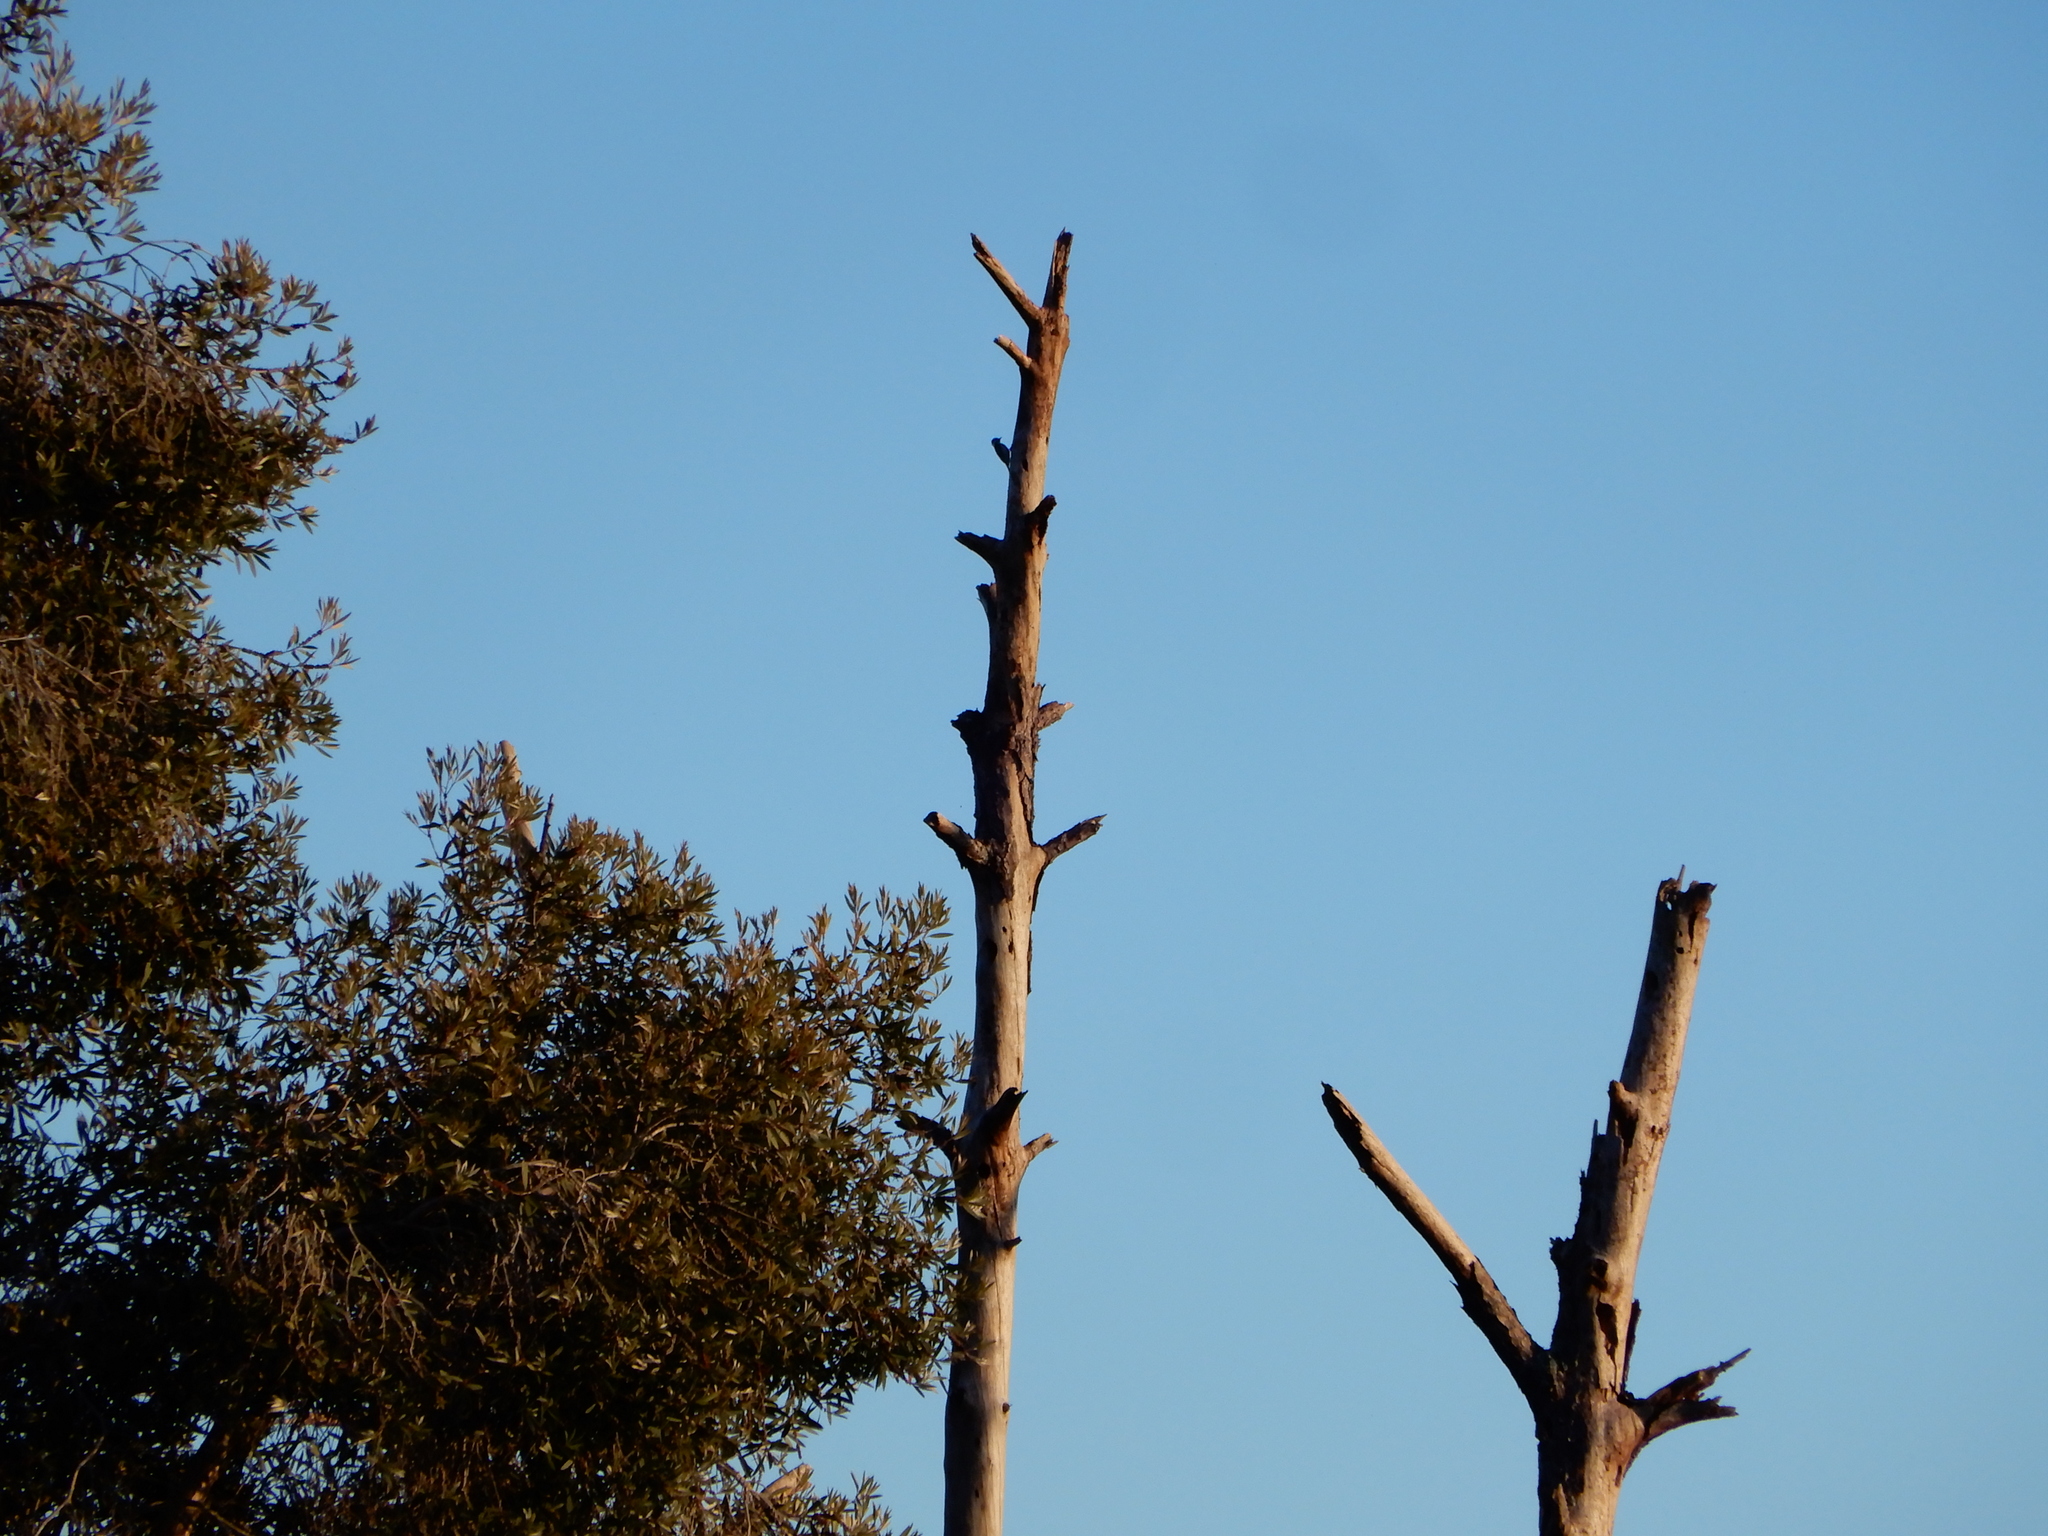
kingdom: Animalia
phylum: Chordata
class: Aves
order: Piciformes
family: Picidae
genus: Dryobates
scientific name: Dryobates pubescens
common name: Downy woodpecker
